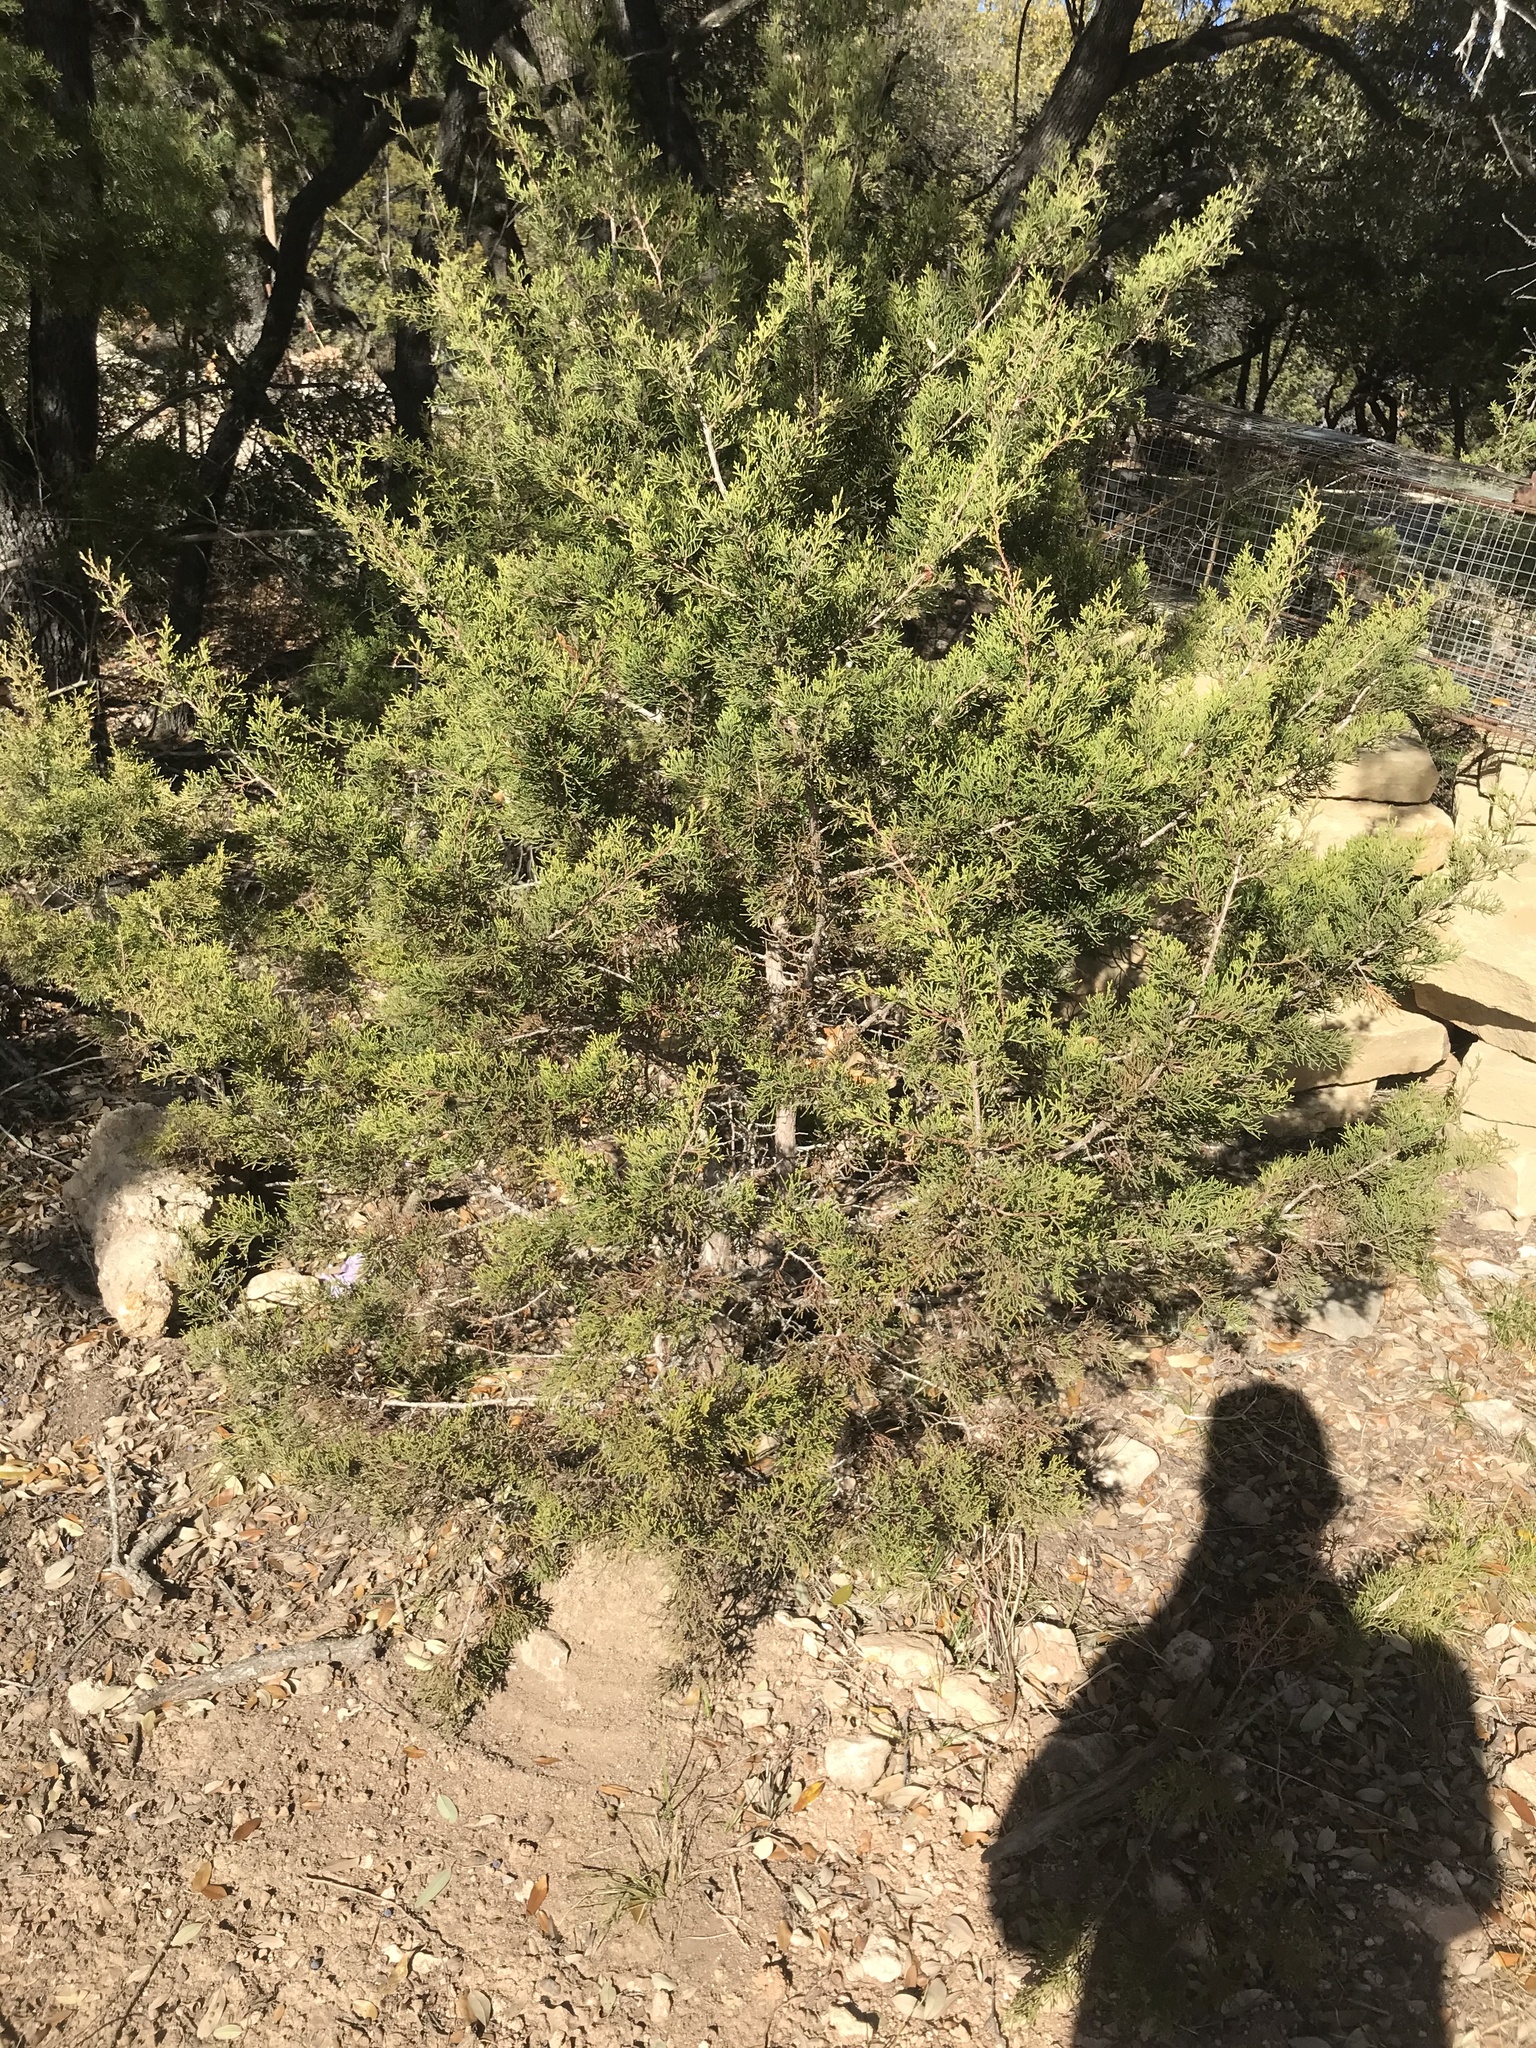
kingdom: Plantae
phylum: Tracheophyta
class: Pinopsida
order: Pinales
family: Cupressaceae
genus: Juniperus
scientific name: Juniperus ashei
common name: Mexican juniper
